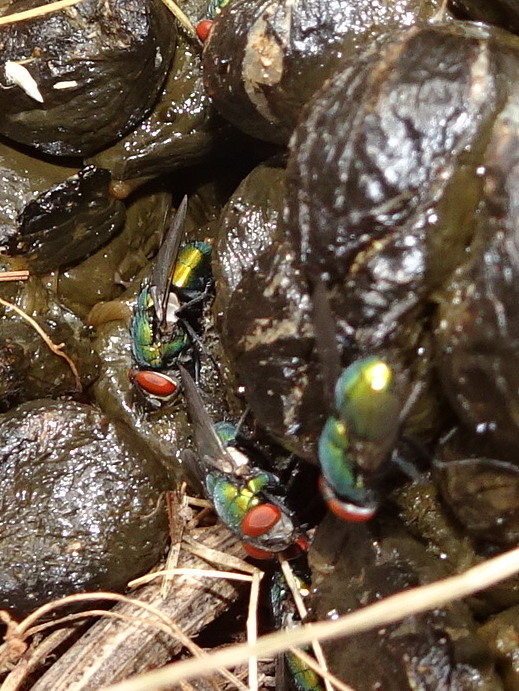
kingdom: Animalia
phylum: Arthropoda
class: Insecta
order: Diptera
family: Calliphoridae
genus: Lucilia
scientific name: Lucilia sericata
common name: Blow fly
